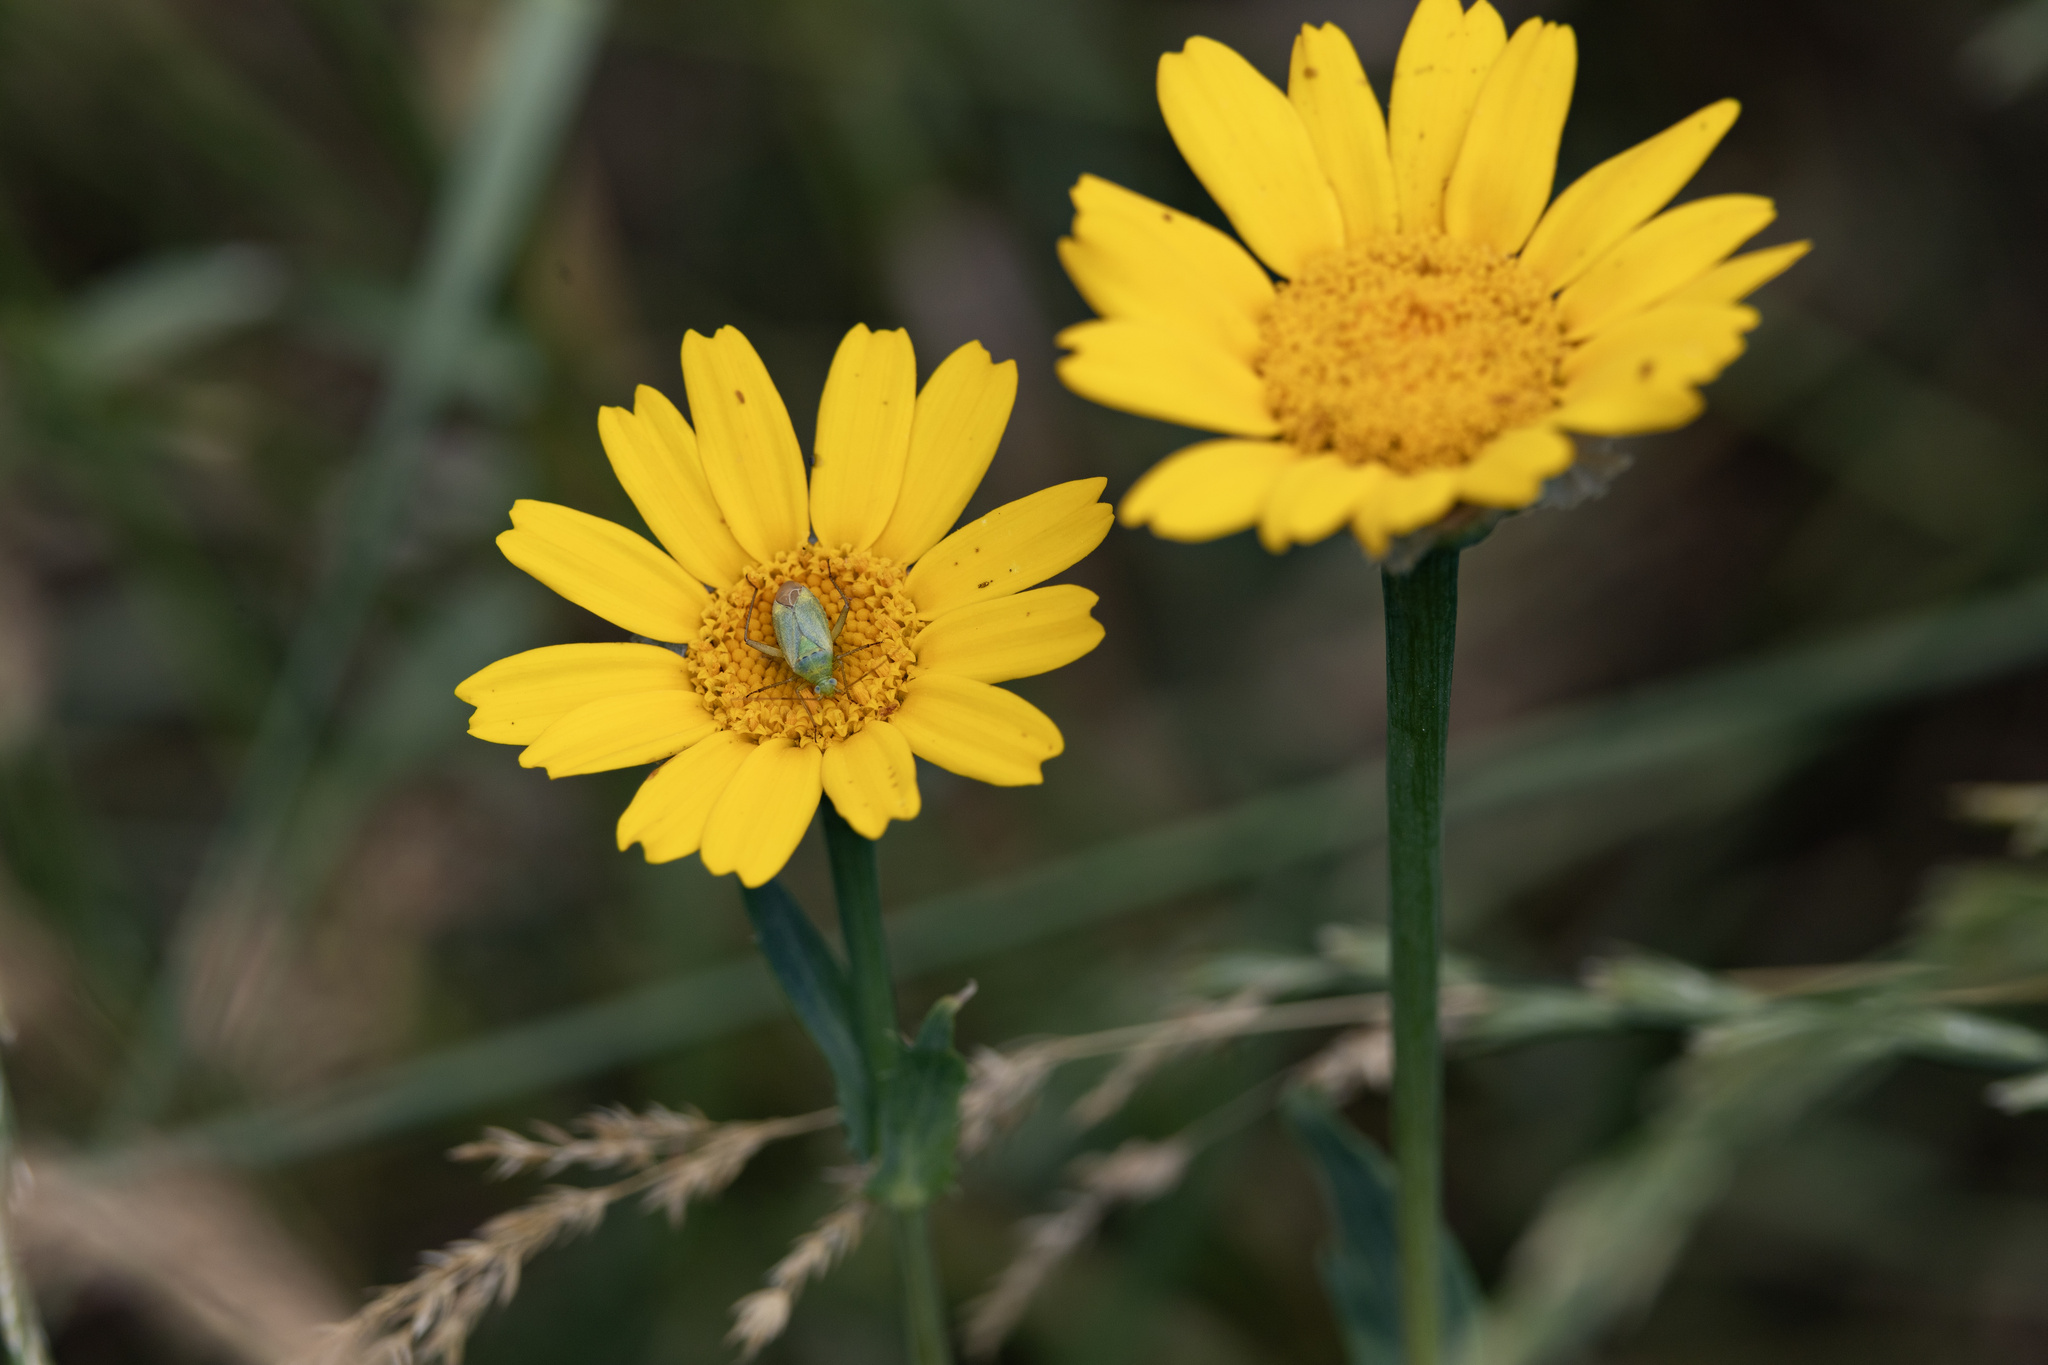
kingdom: Animalia
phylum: Arthropoda
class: Insecta
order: Hemiptera
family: Miridae
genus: Closterotomus
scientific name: Closterotomus norvegicus
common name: Plant bug
